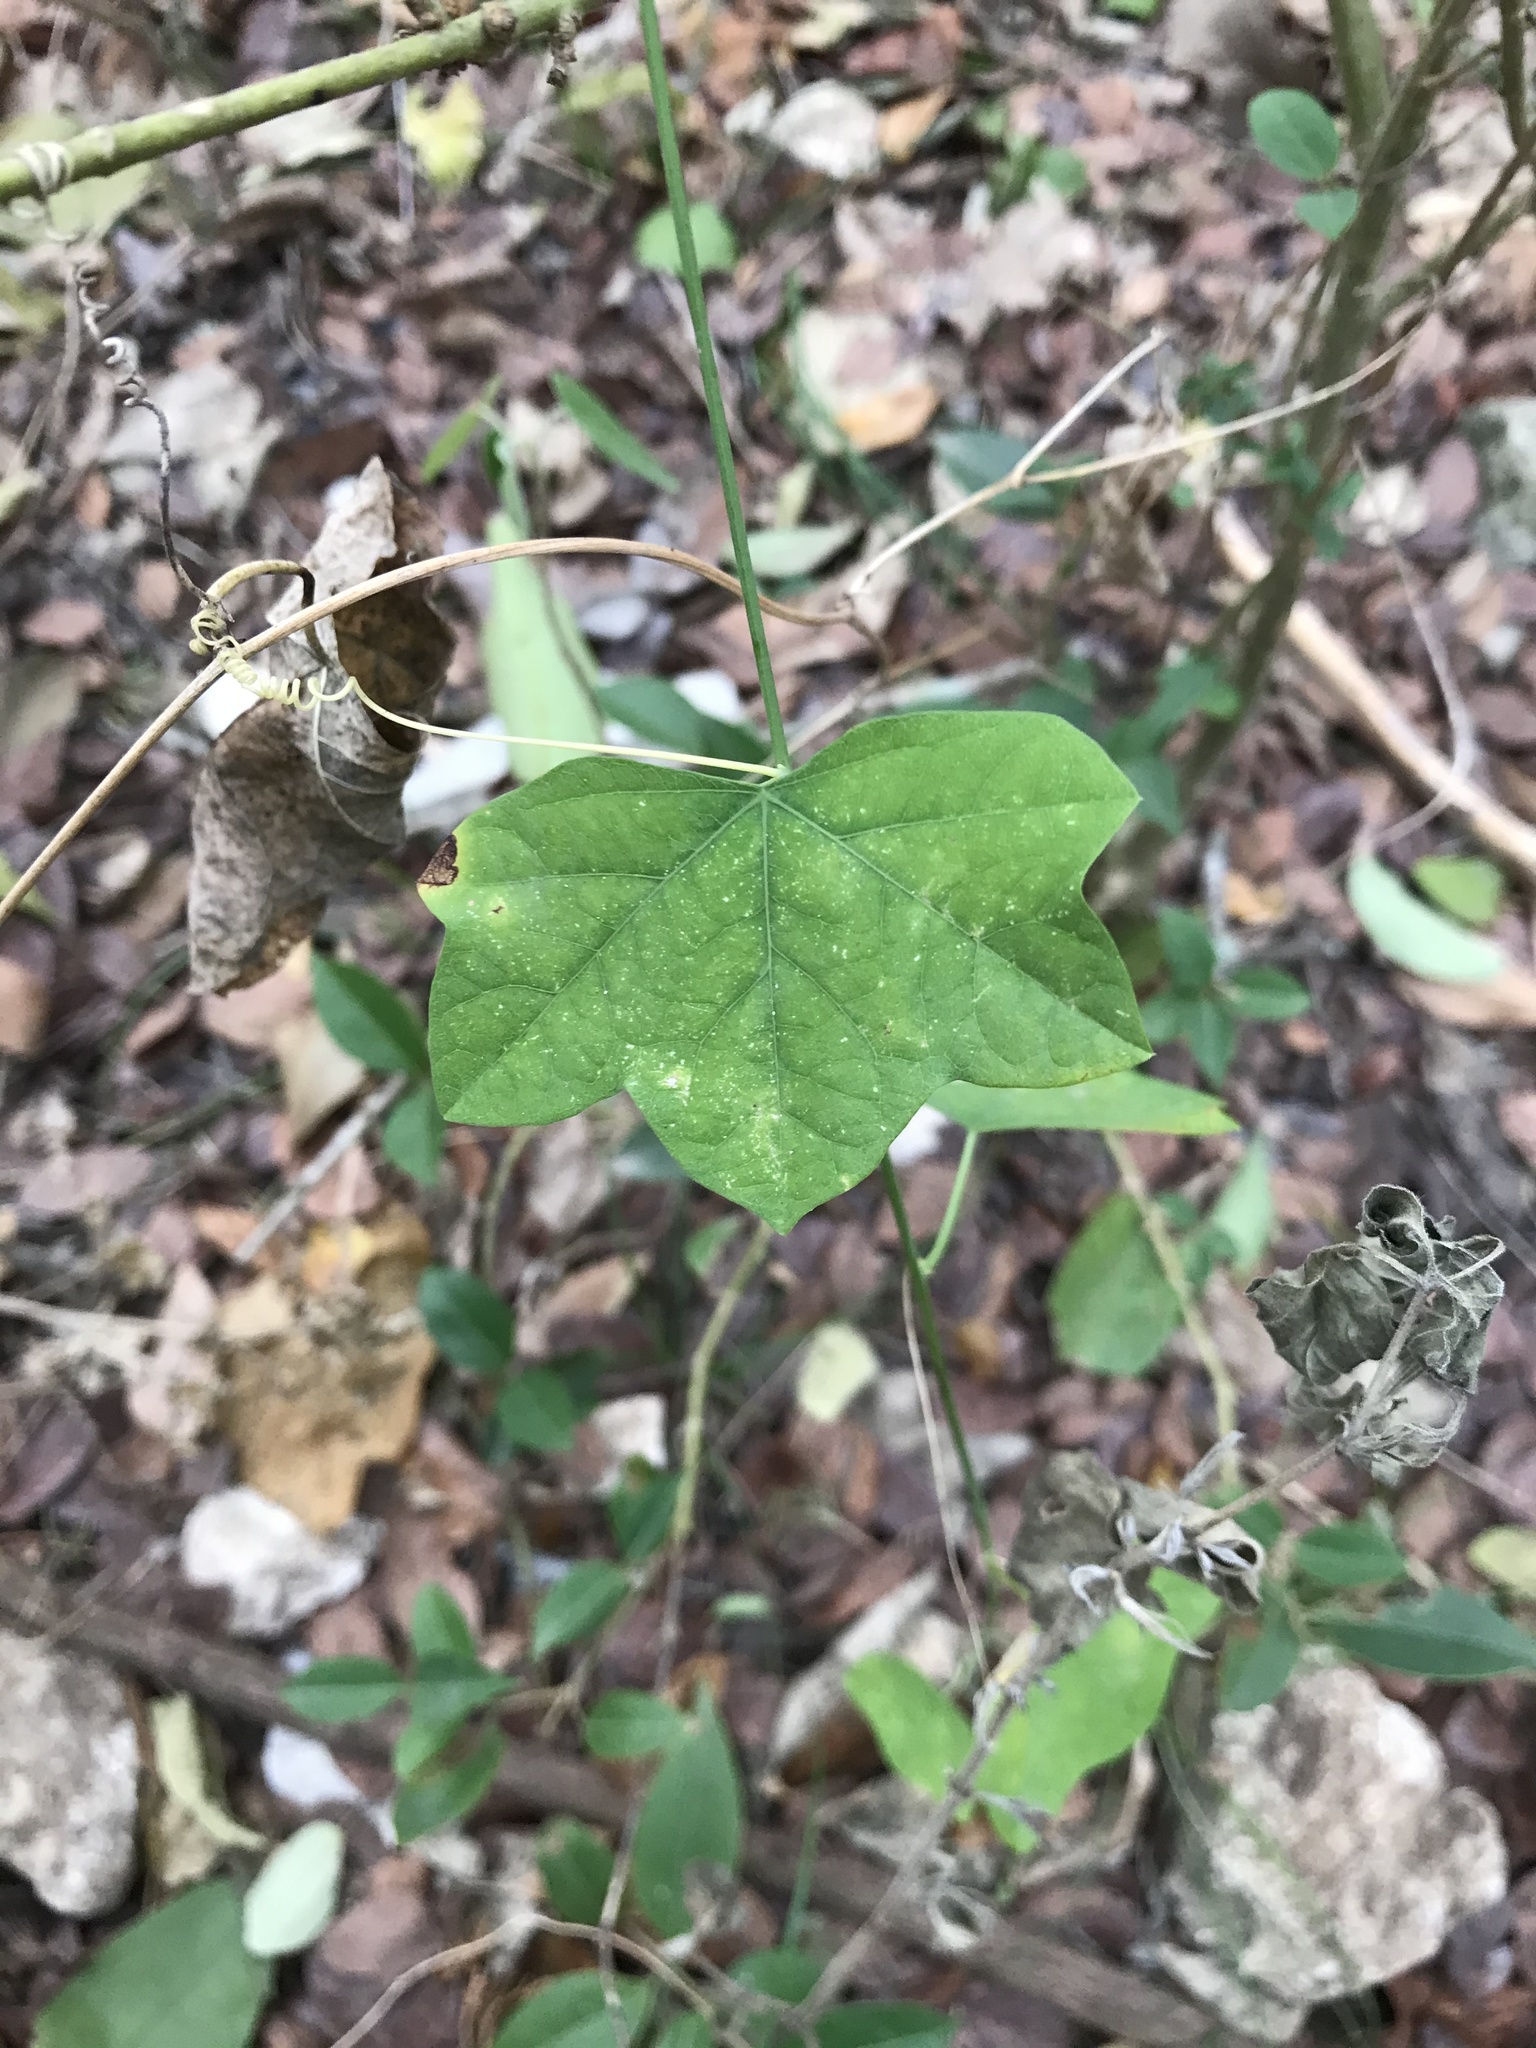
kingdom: Plantae
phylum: Tracheophyta
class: Magnoliopsida
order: Malpighiales
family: Passifloraceae
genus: Passiflora
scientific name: Passiflora lutea
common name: Yellow passionflower
